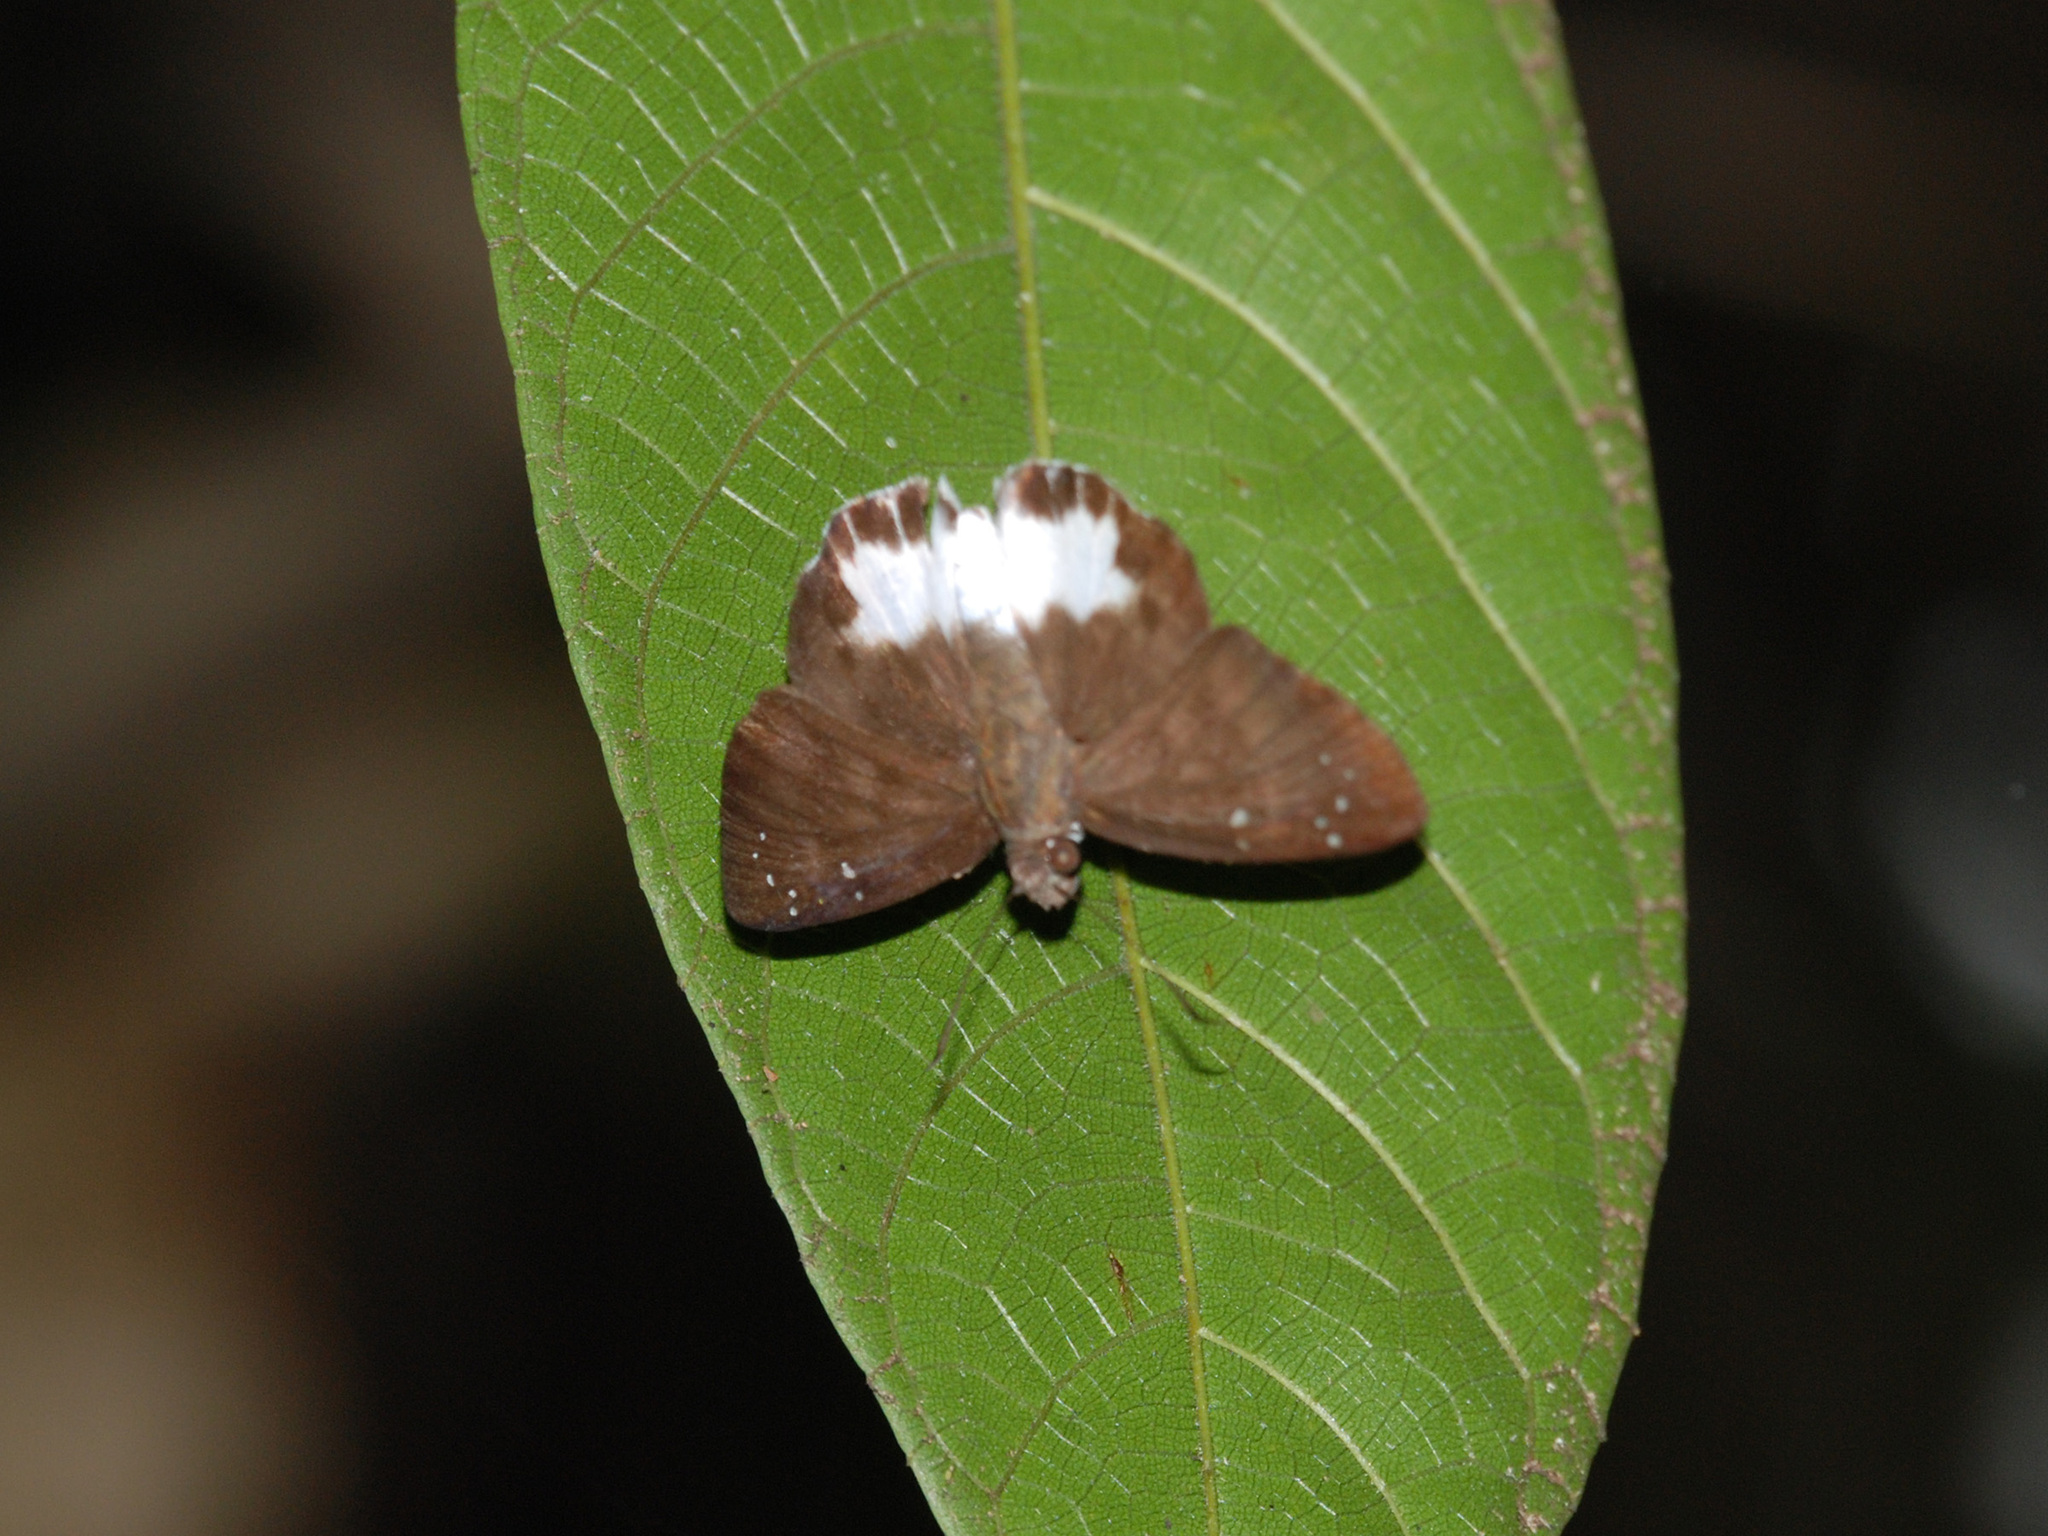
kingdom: Animalia
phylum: Arthropoda
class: Insecta
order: Lepidoptera
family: Hesperiidae
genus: Tagiades
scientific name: Tagiades litigiosa
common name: Water snow flat
